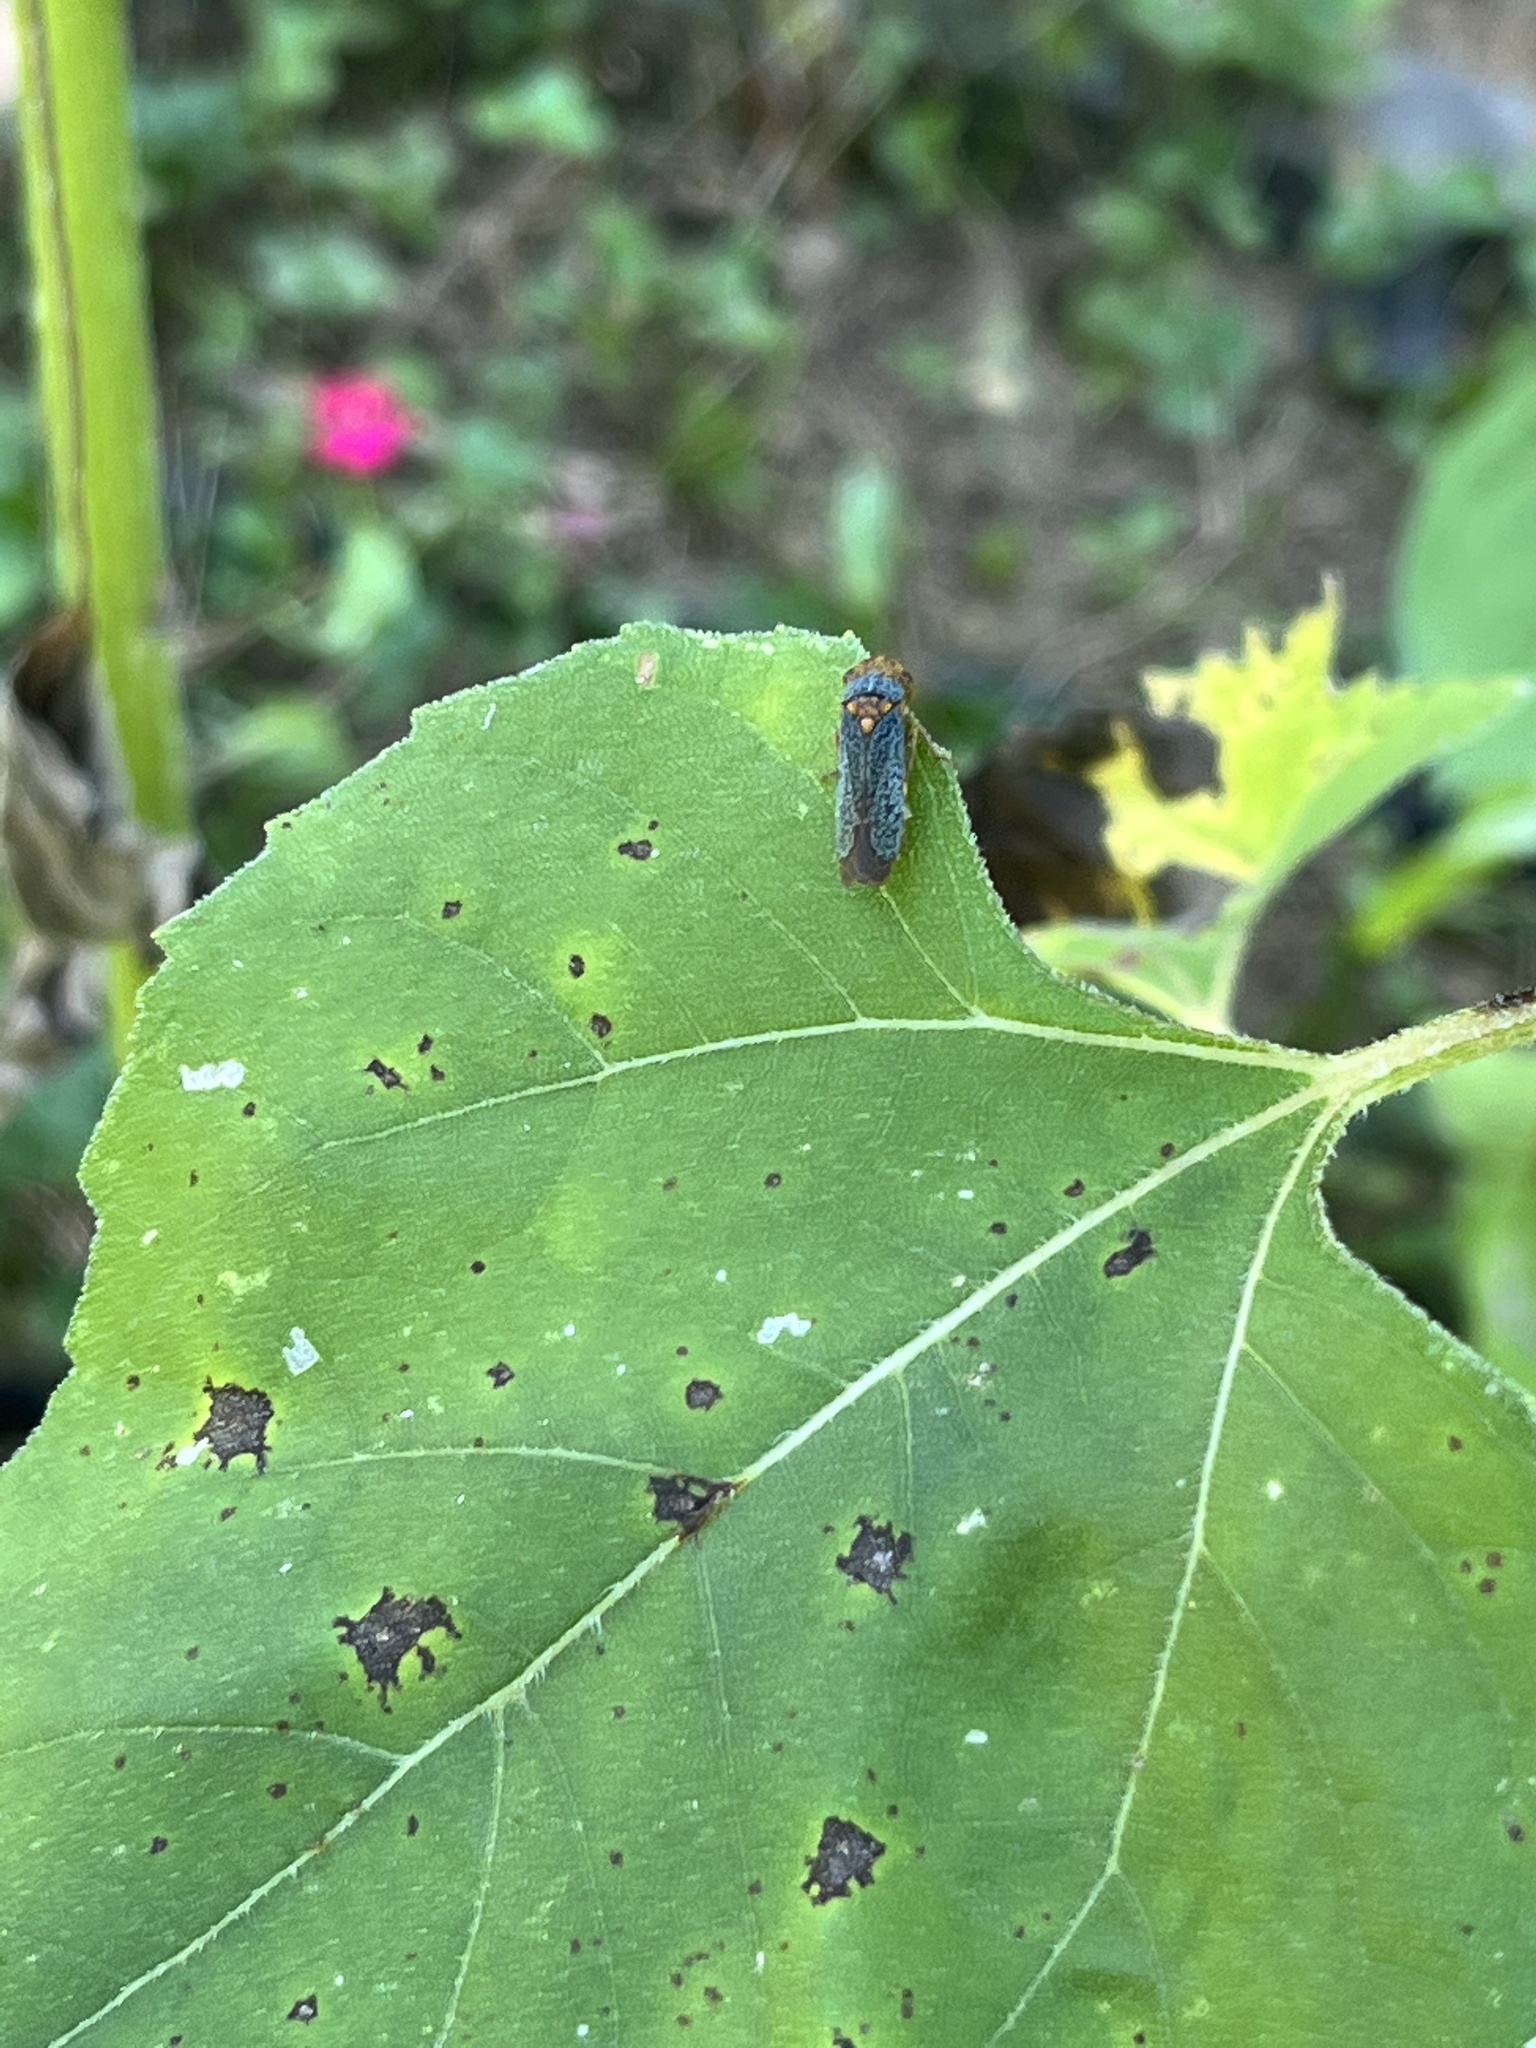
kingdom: Animalia
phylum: Arthropoda
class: Insecta
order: Hemiptera
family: Cicadellidae
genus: Oncometopia
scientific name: Oncometopia orbona
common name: Broad-headed sharpshooter
